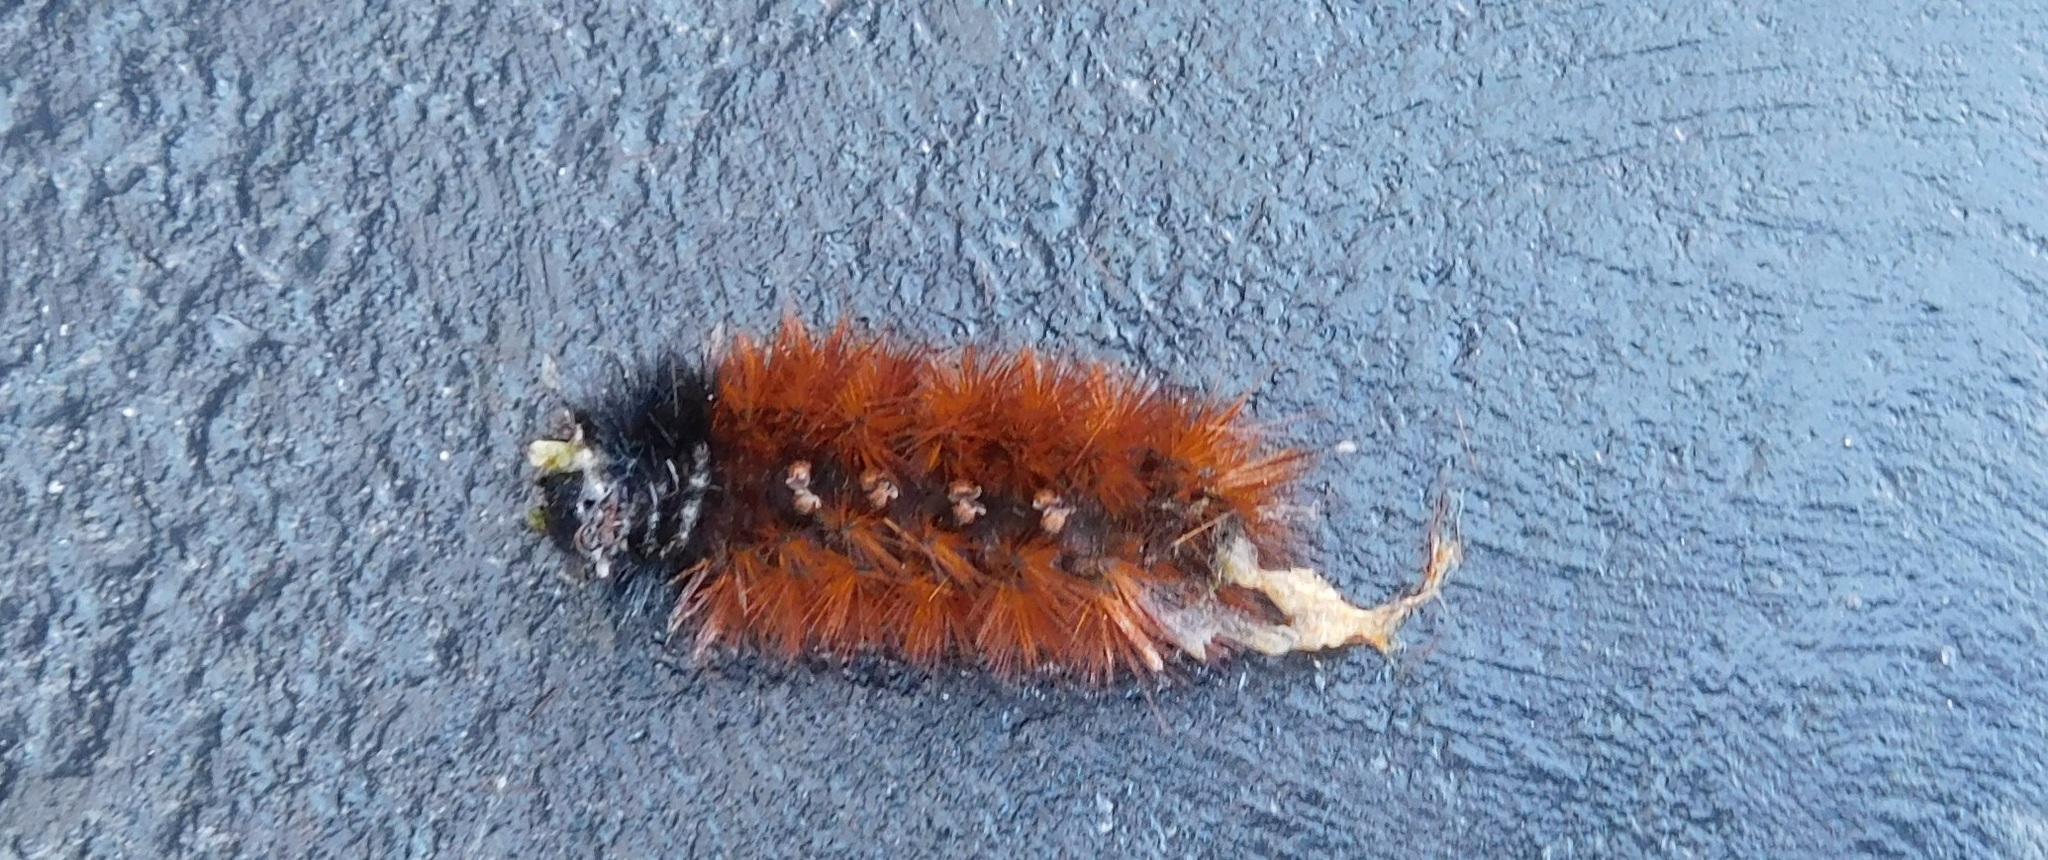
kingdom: Animalia
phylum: Arthropoda
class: Insecta
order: Lepidoptera
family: Erebidae
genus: Pyrrharctia
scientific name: Pyrrharctia isabella
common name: Isabella tiger moth
